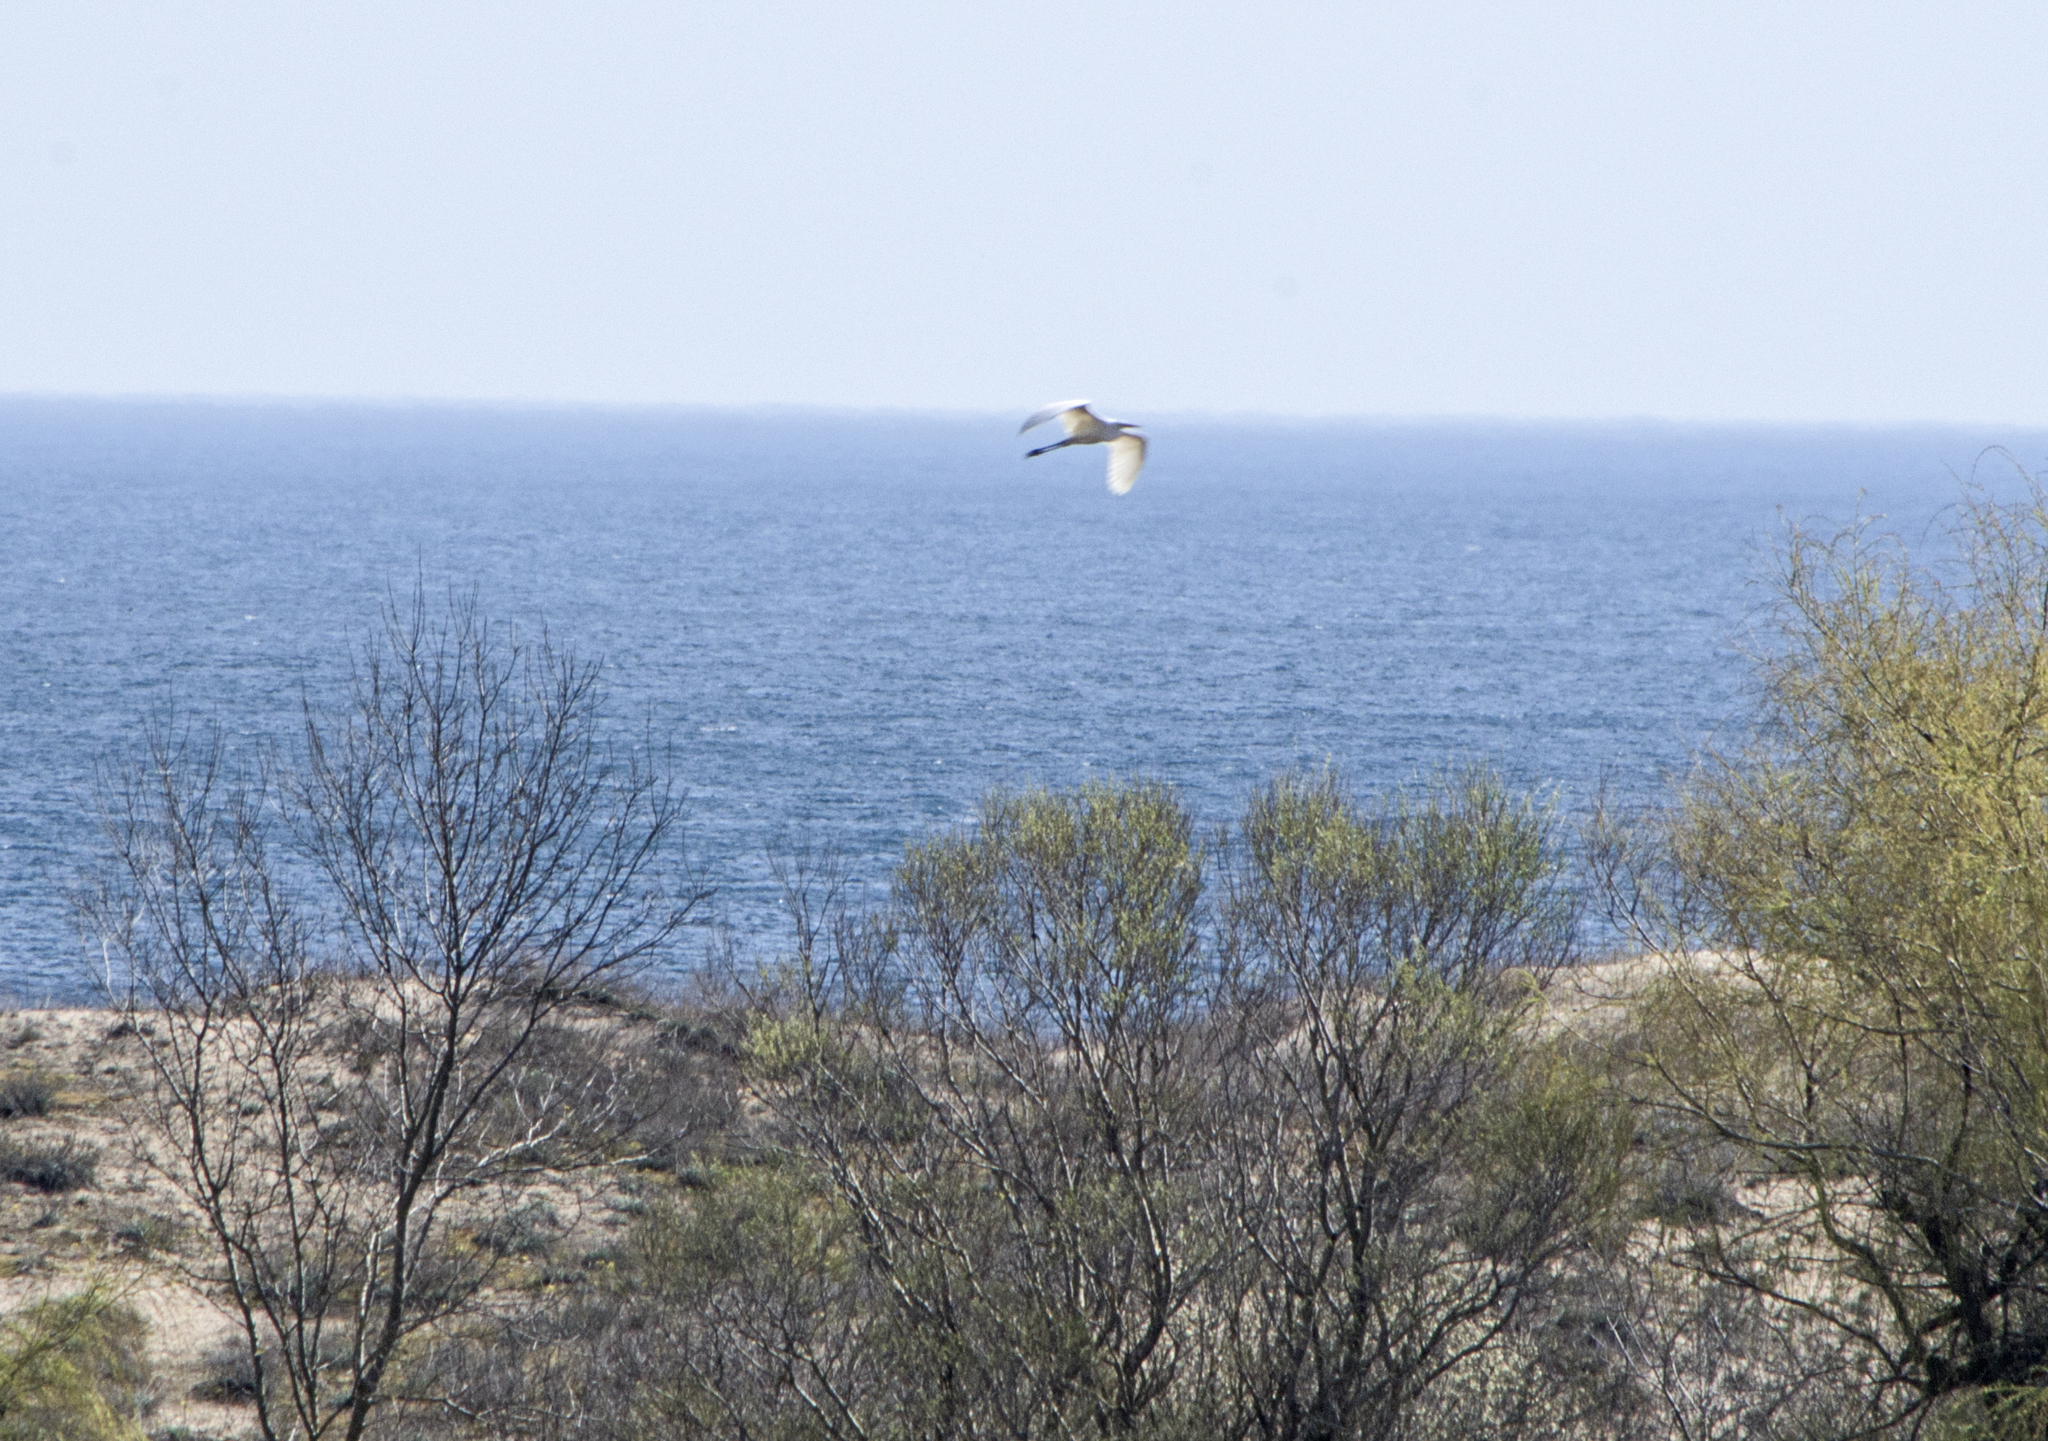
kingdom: Animalia
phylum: Chordata
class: Aves
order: Pelecaniformes
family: Ardeidae
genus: Ardea
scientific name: Ardea alba
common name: Great egret
